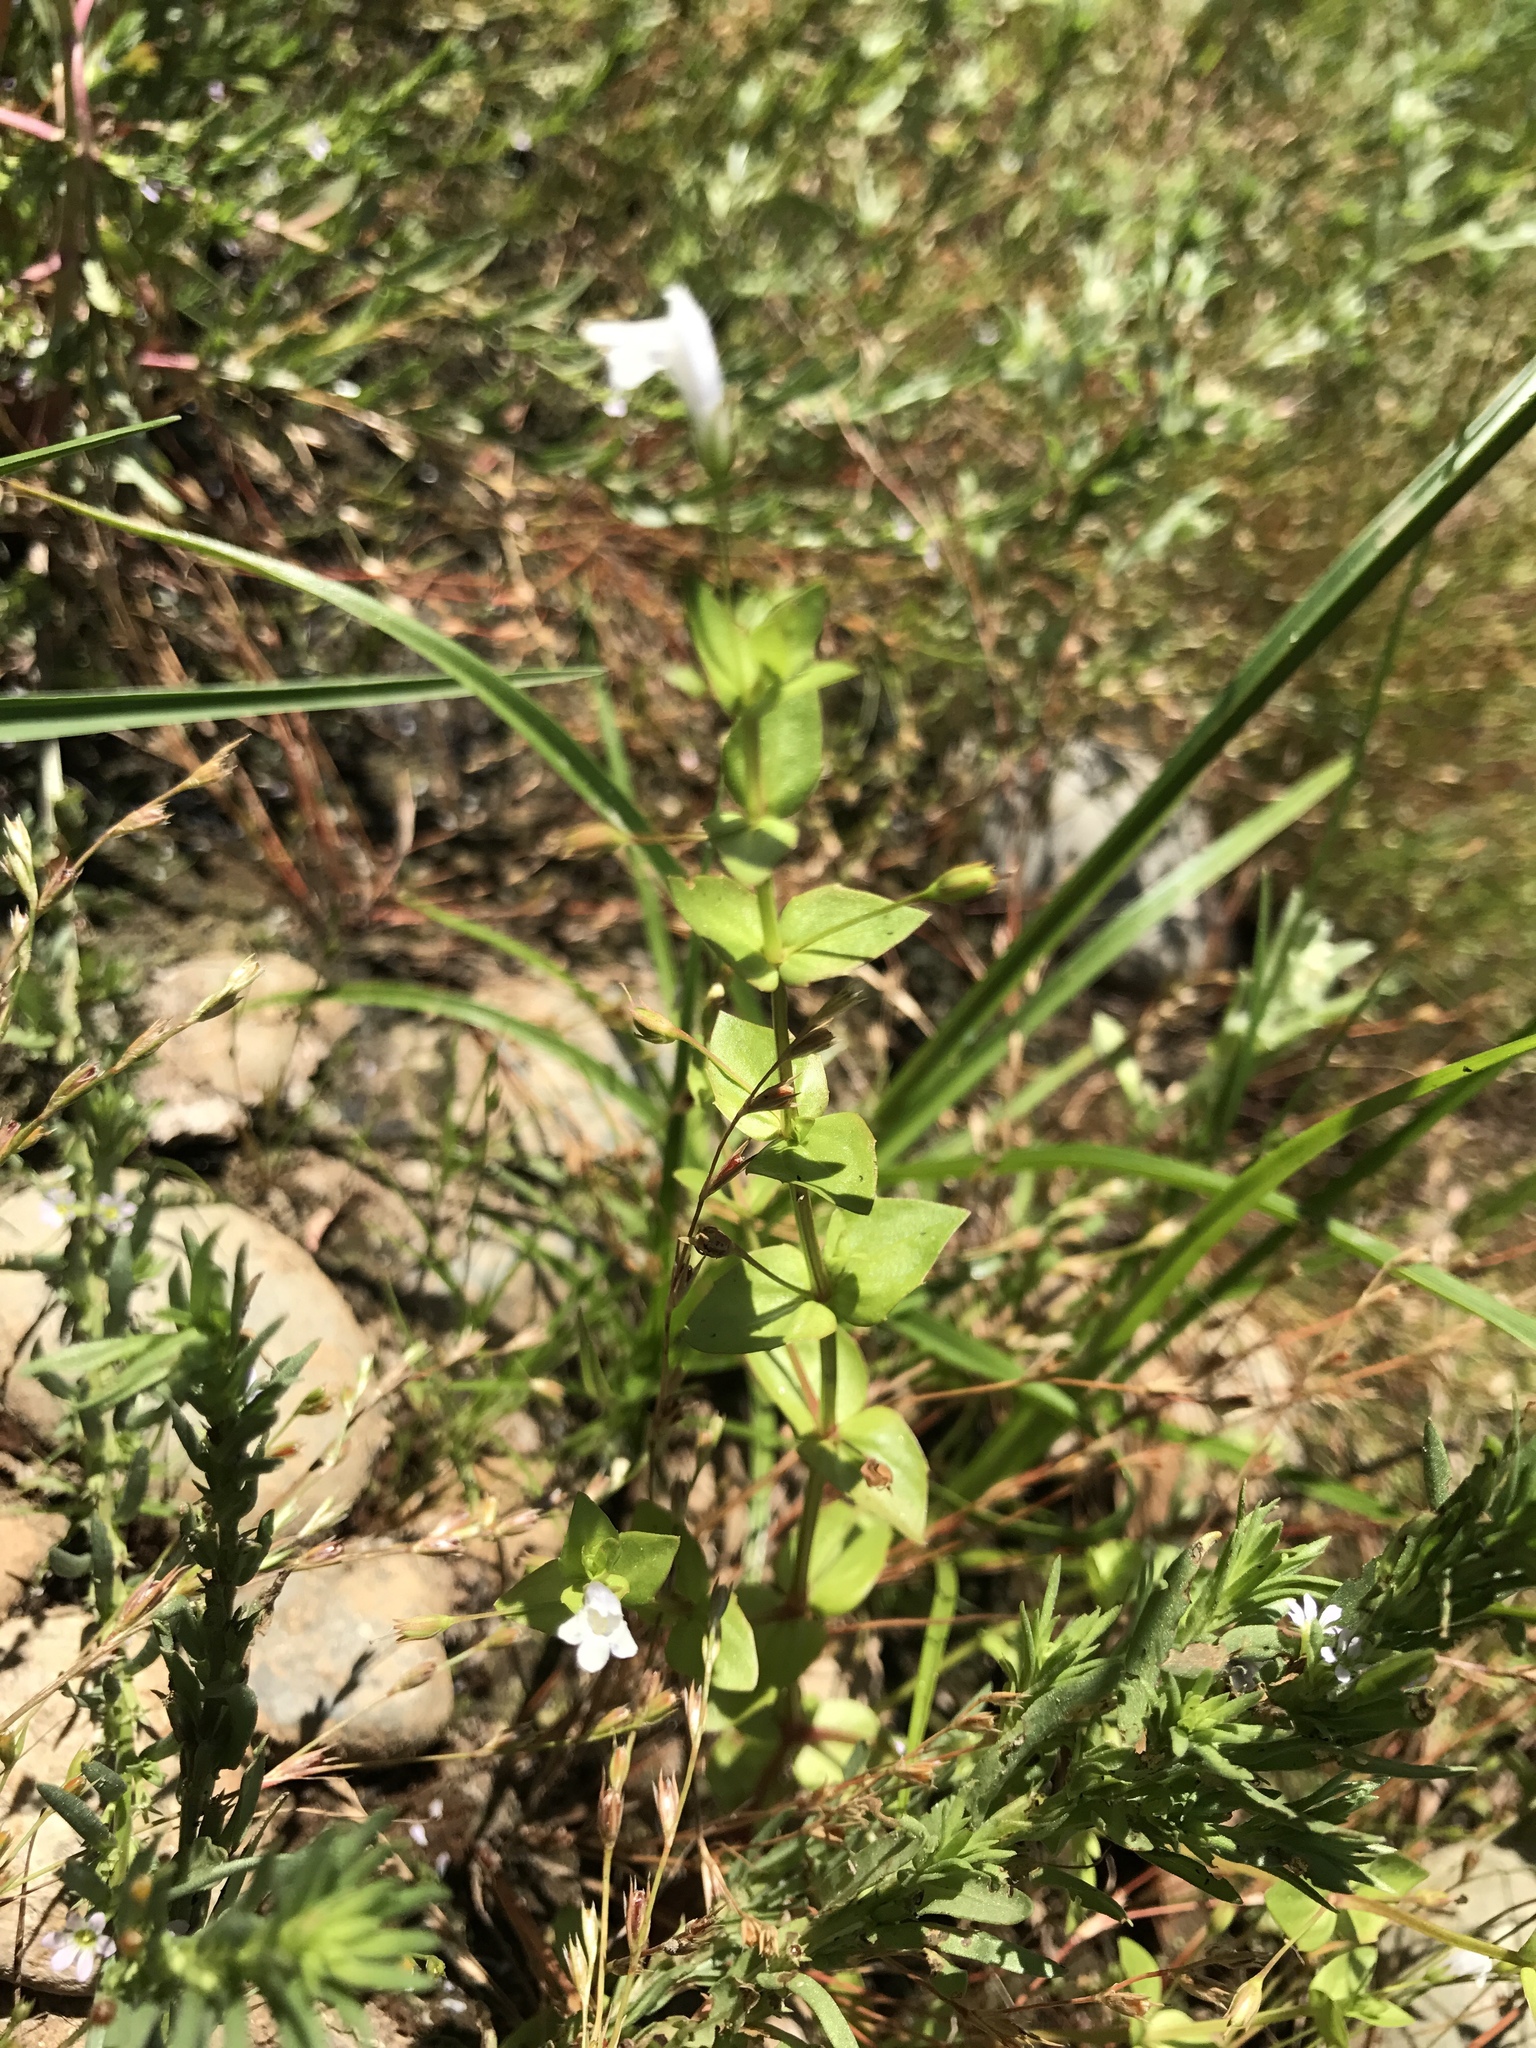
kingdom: Plantae
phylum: Tracheophyta
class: Magnoliopsida
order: Lamiales
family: Linderniaceae
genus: Lindernia
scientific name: Lindernia dubia
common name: Annual false pimpernel
